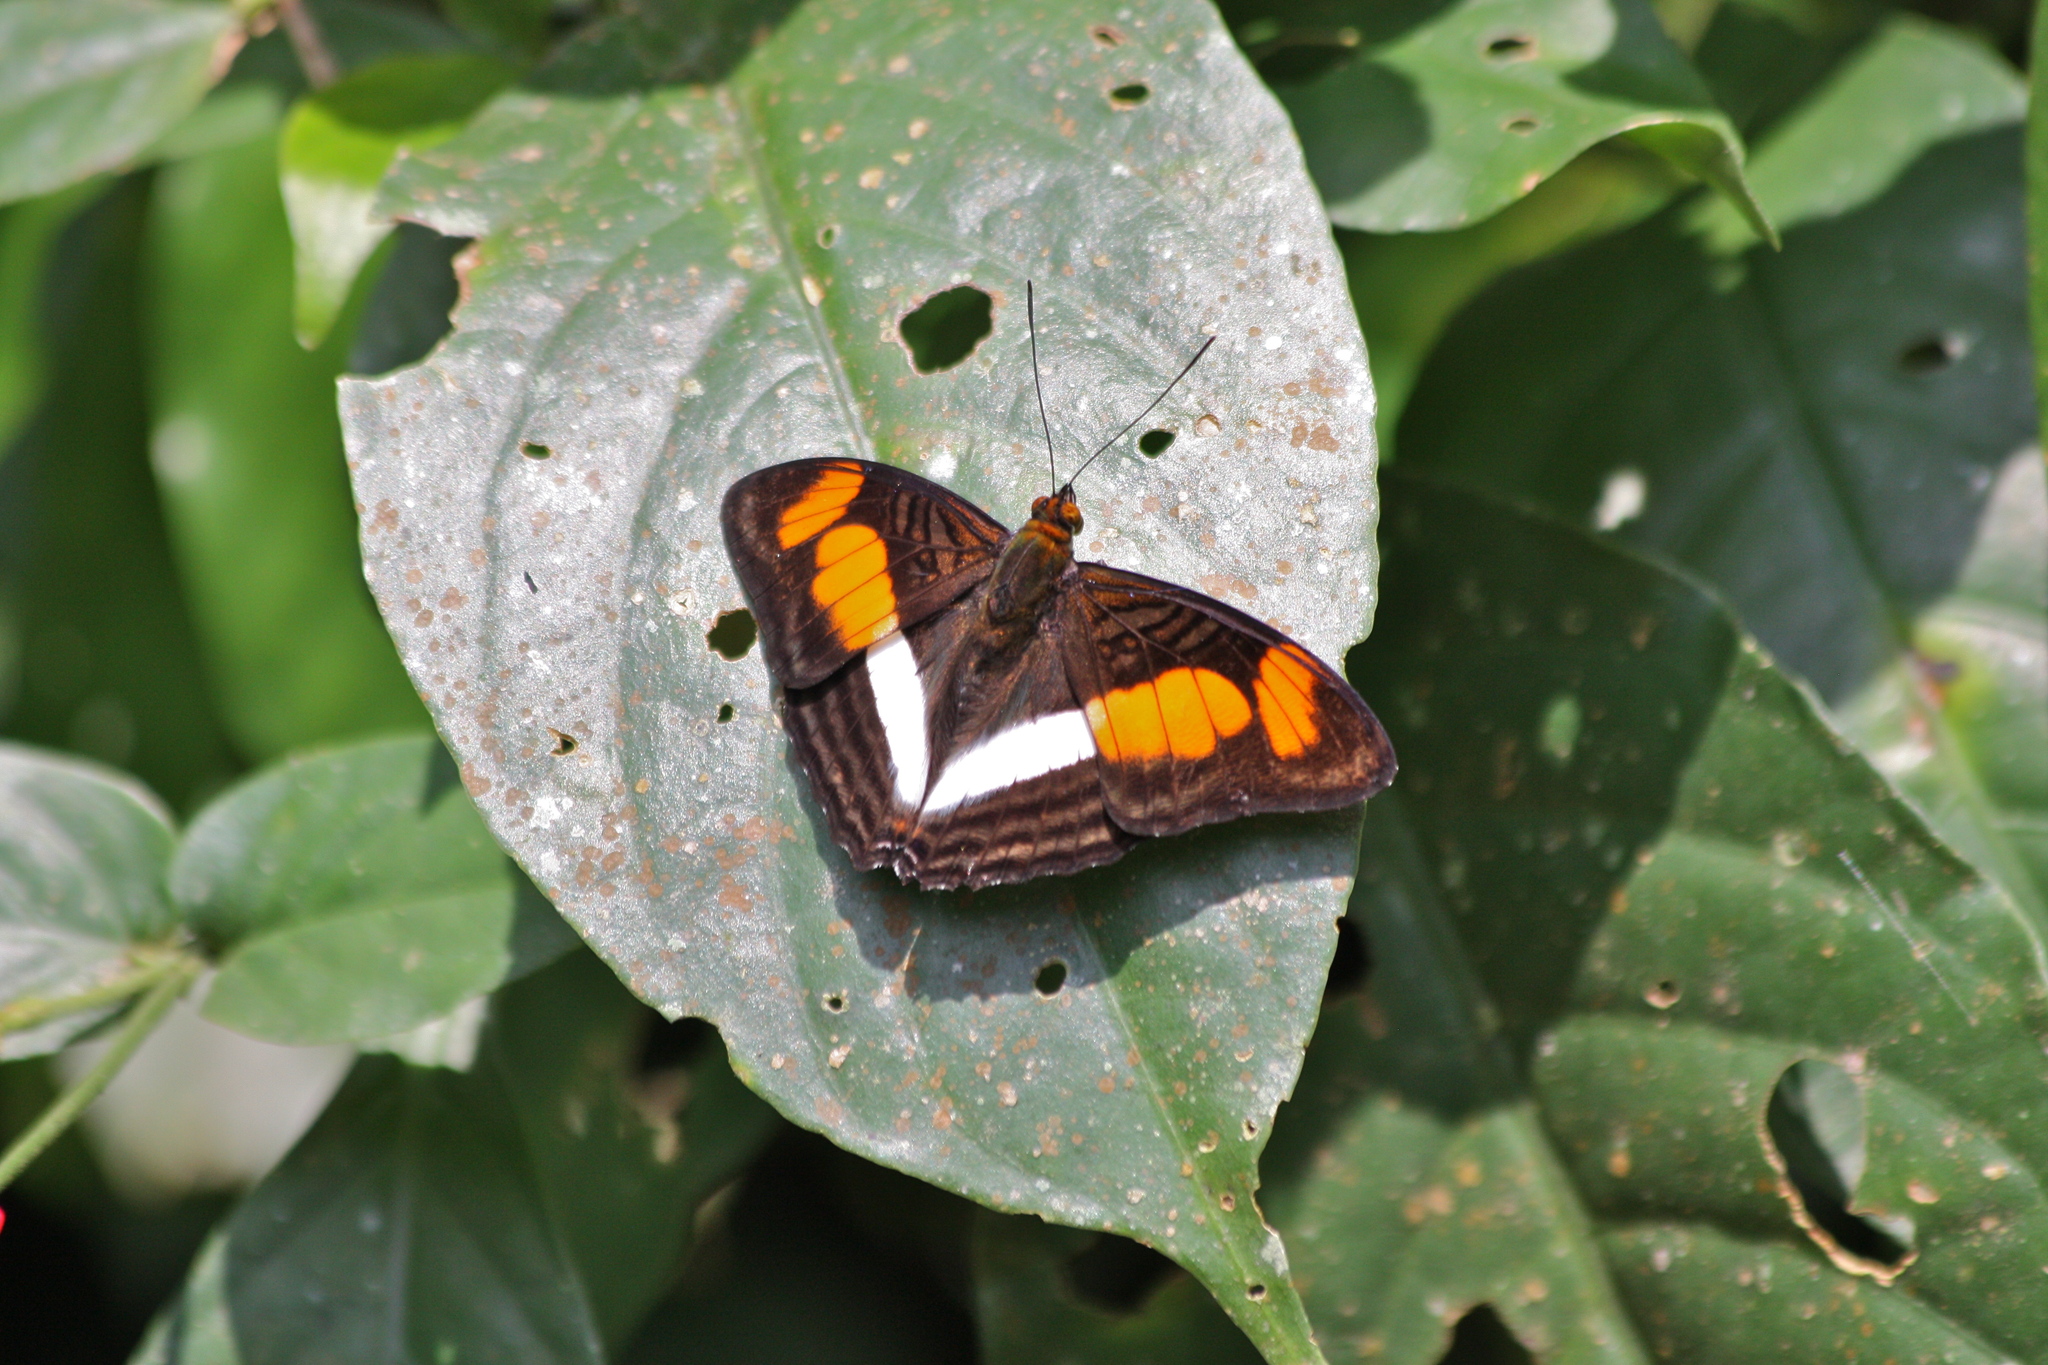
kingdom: Animalia
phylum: Arthropoda
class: Insecta
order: Lepidoptera
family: Nymphalidae
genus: Limenitis
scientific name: Limenitis melona
